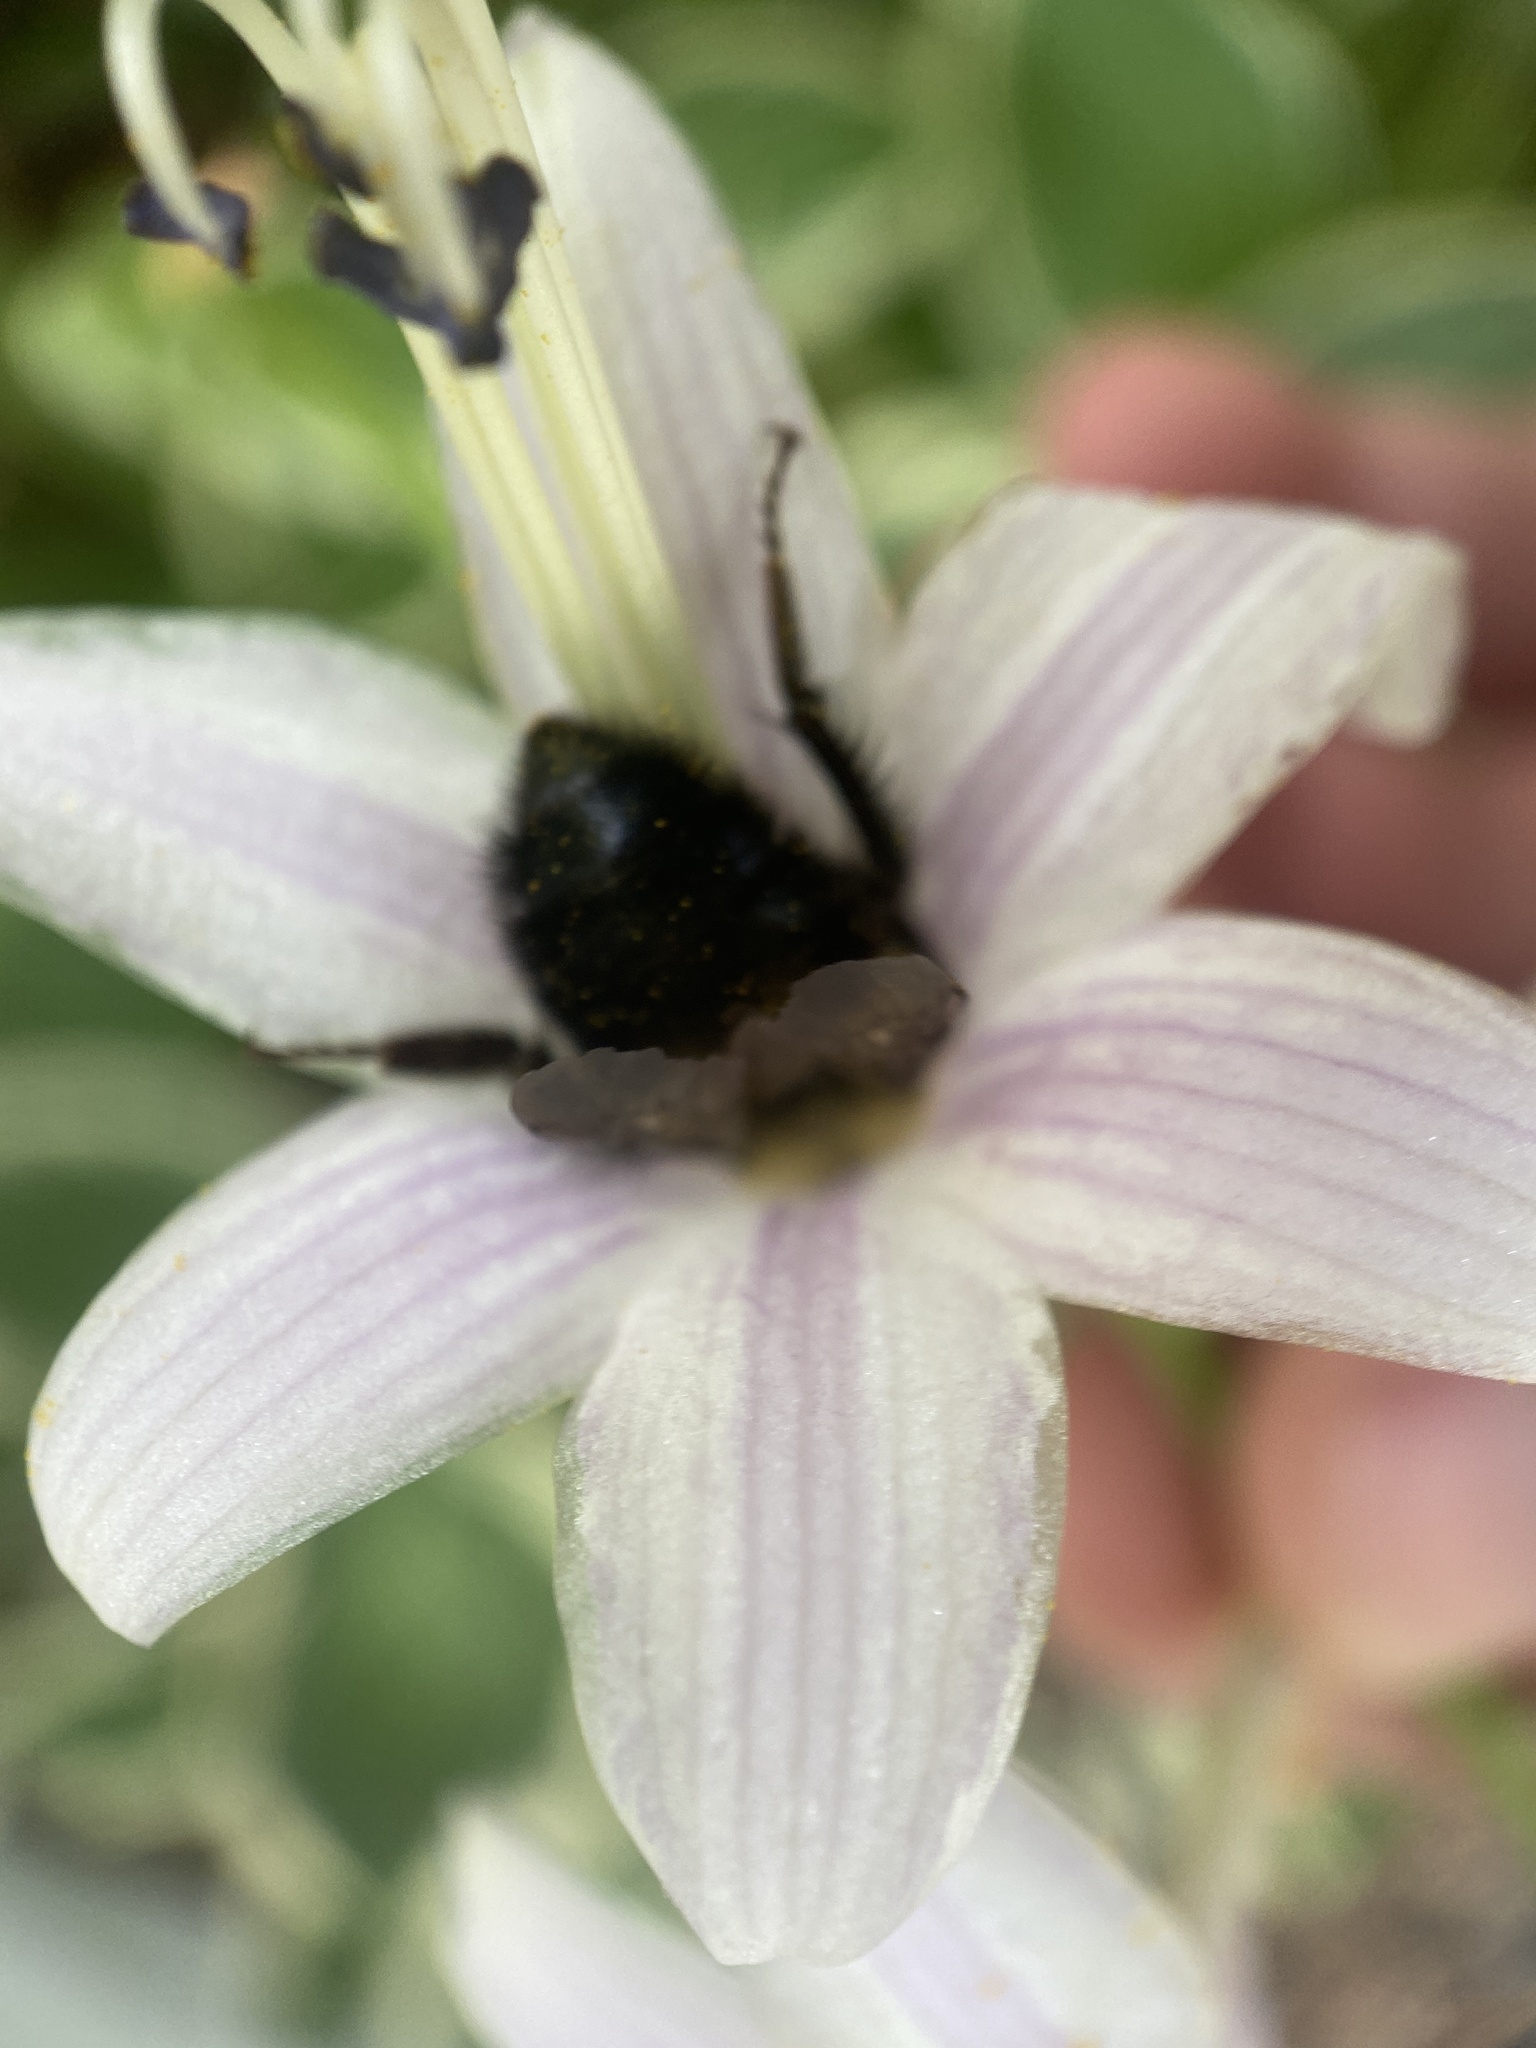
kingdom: Animalia
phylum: Arthropoda
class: Insecta
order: Hymenoptera
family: Apidae
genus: Bombus
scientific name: Bombus bimaculatus
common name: Two-spotted bumble bee
